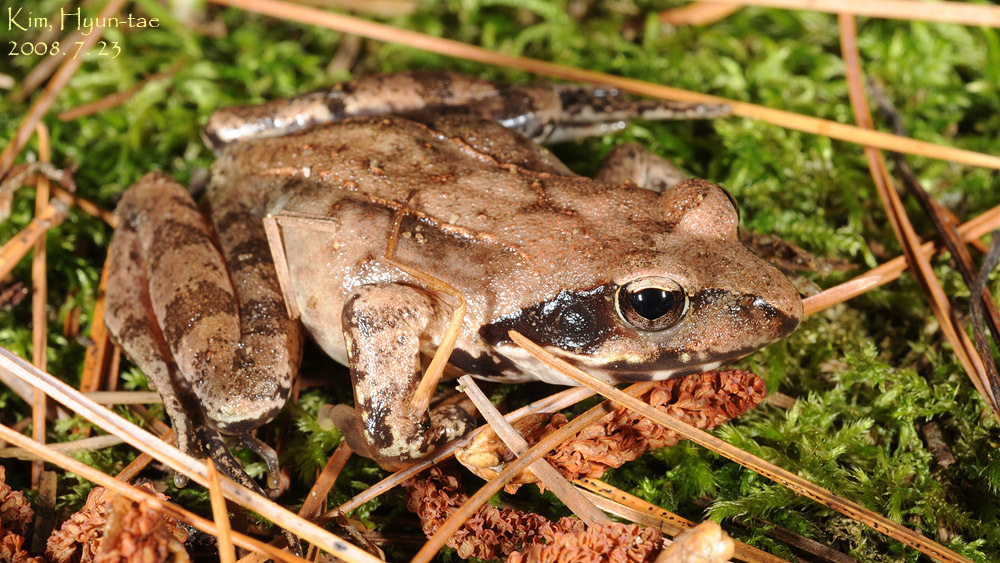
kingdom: Animalia
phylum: Chordata
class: Amphibia
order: Anura
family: Ranidae
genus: Rana
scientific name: Rana uenoi
